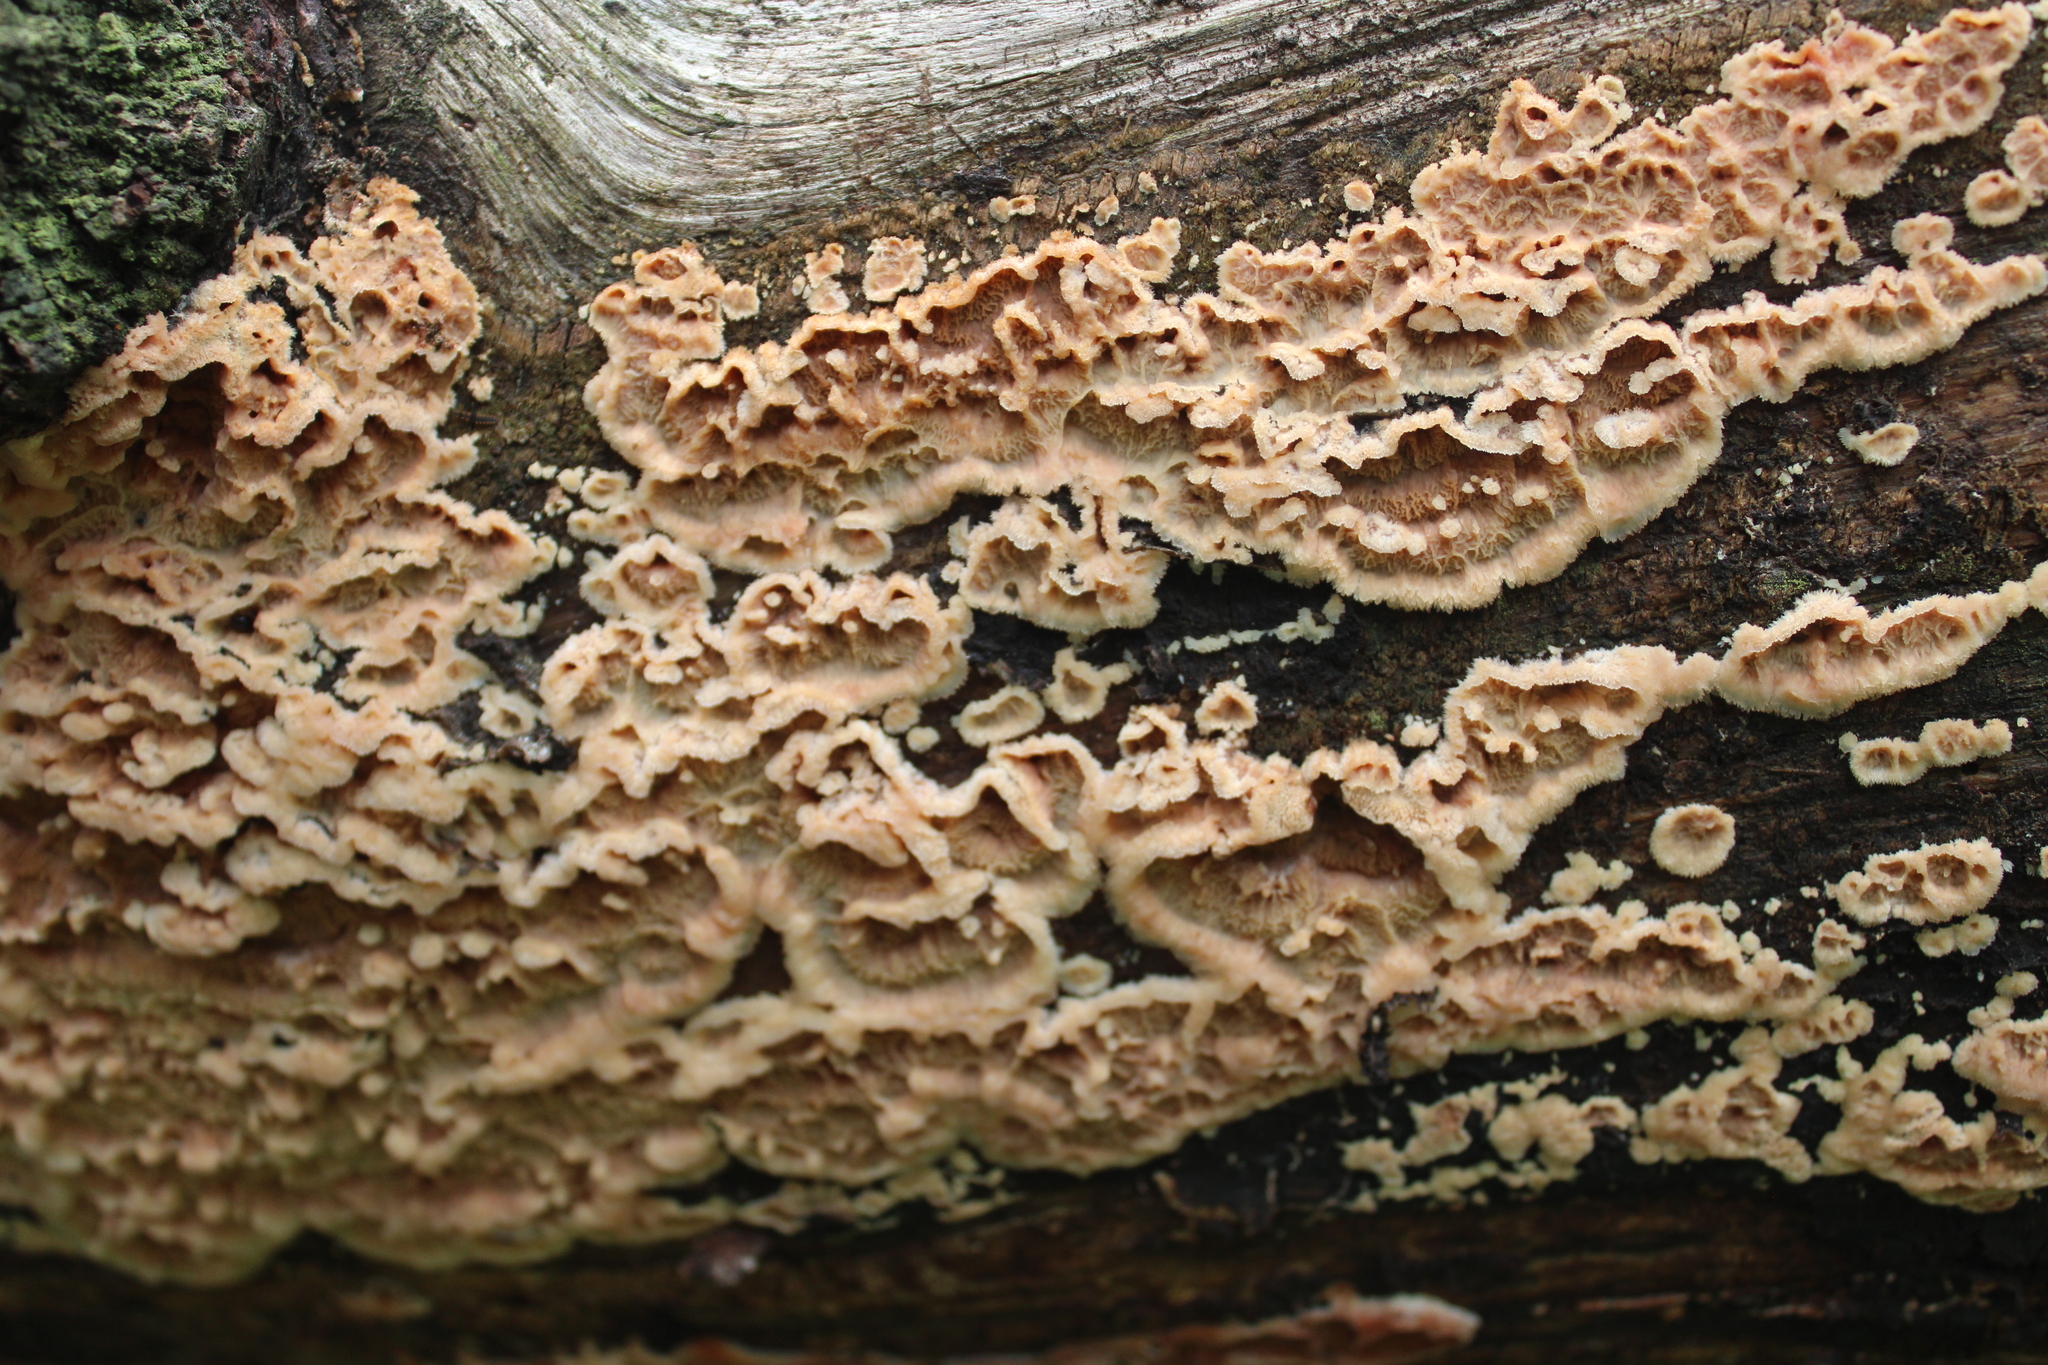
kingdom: Fungi
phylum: Basidiomycota
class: Agaricomycetes
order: Polyporales
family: Meruliaceae
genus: Phlebia
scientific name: Phlebia tremellosa
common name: Jelly rot
